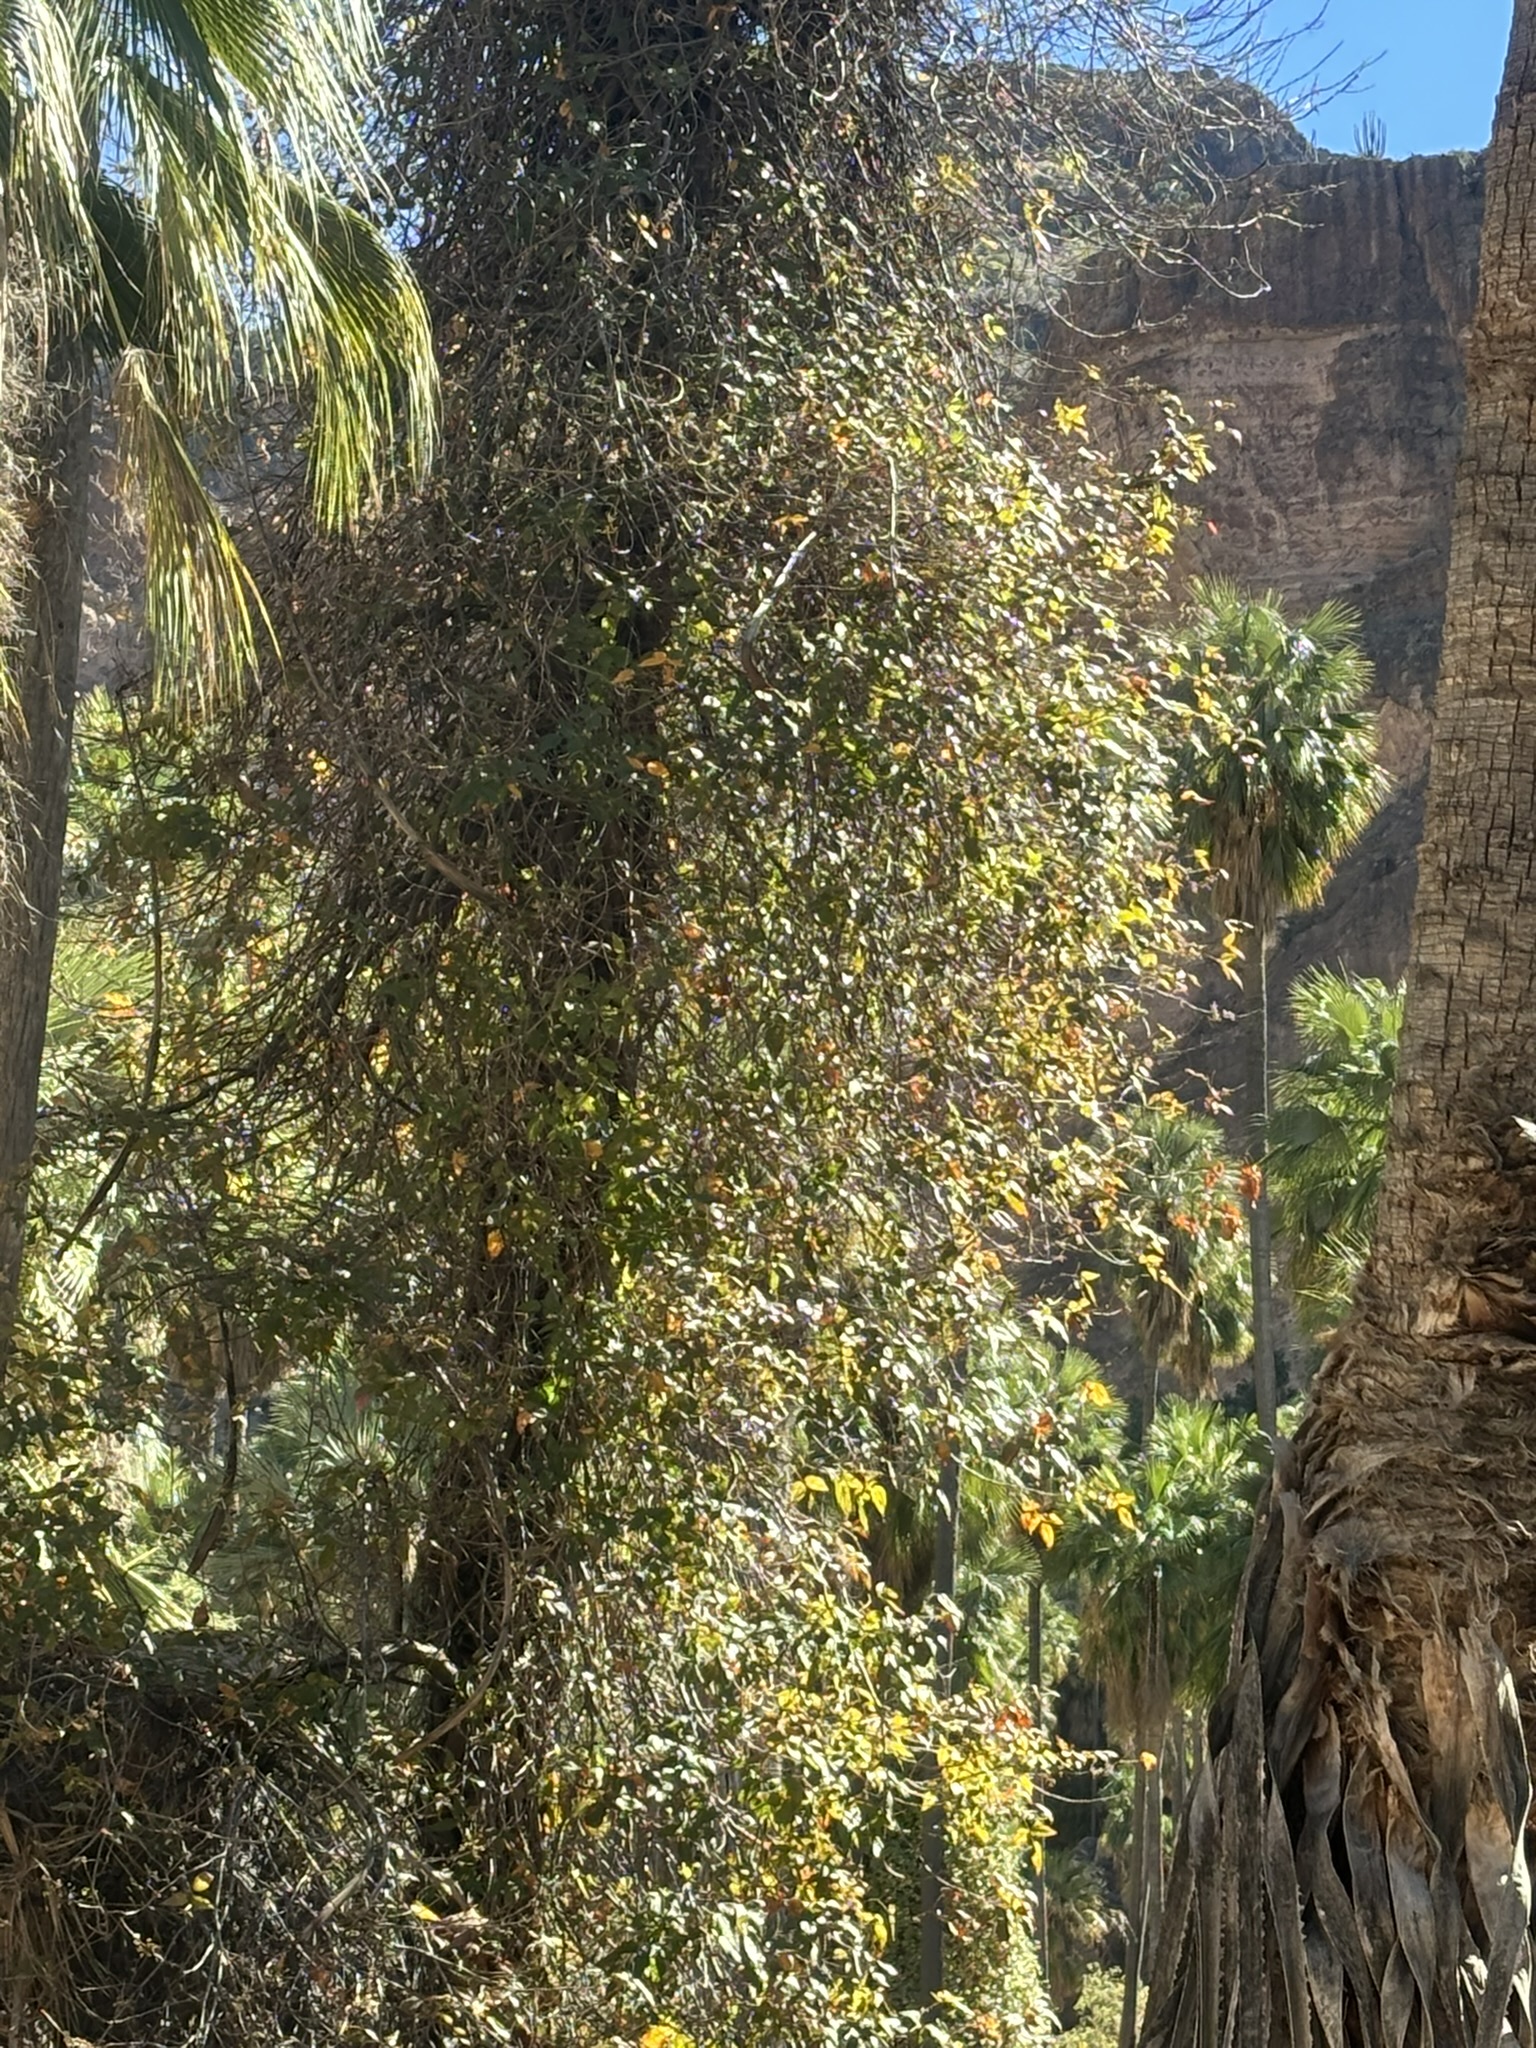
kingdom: Plantae
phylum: Tracheophyta
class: Magnoliopsida
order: Sapindales
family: Anacardiaceae
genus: Toxicodendron
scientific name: Toxicodendron radicans
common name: Poison ivy
